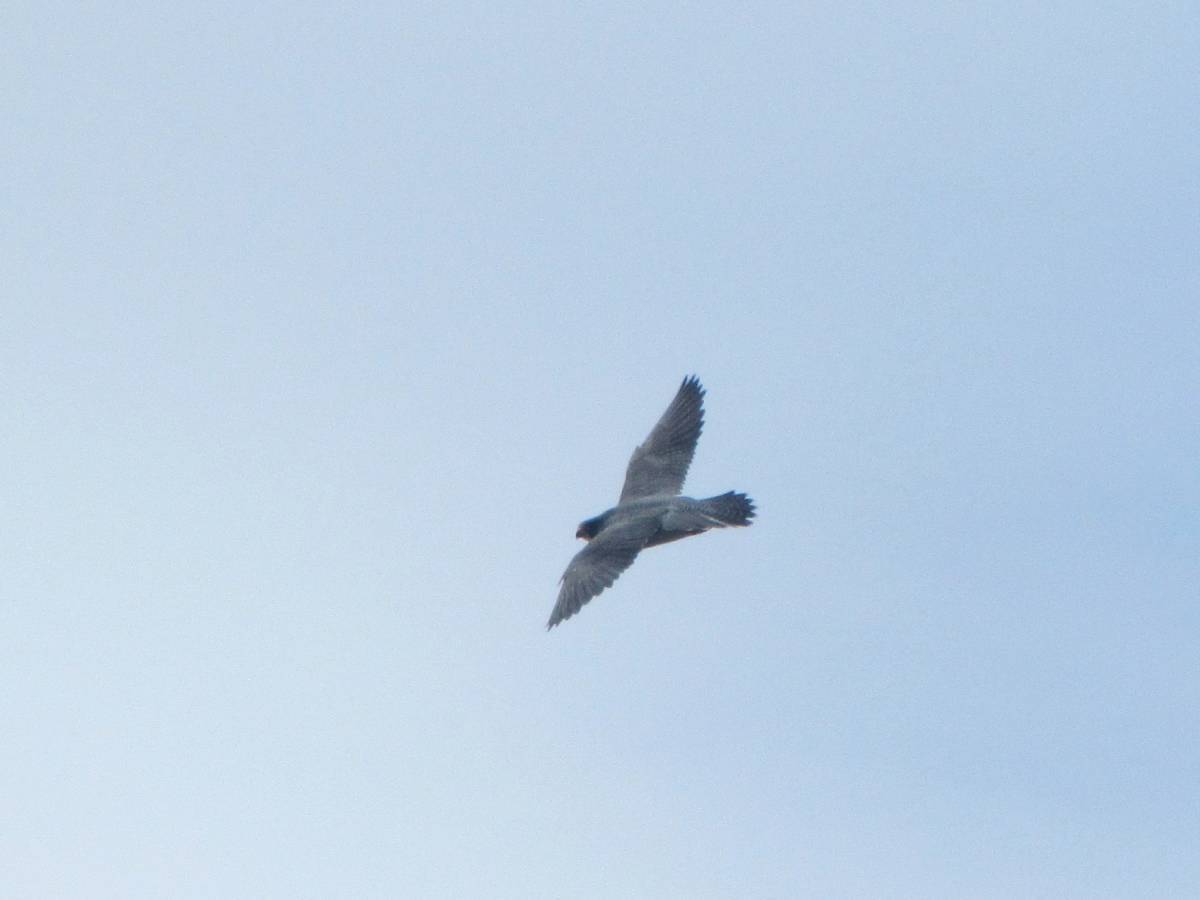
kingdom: Animalia
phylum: Chordata
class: Aves
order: Falconiformes
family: Falconidae
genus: Falco
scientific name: Falco peregrinus
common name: Peregrine falcon
